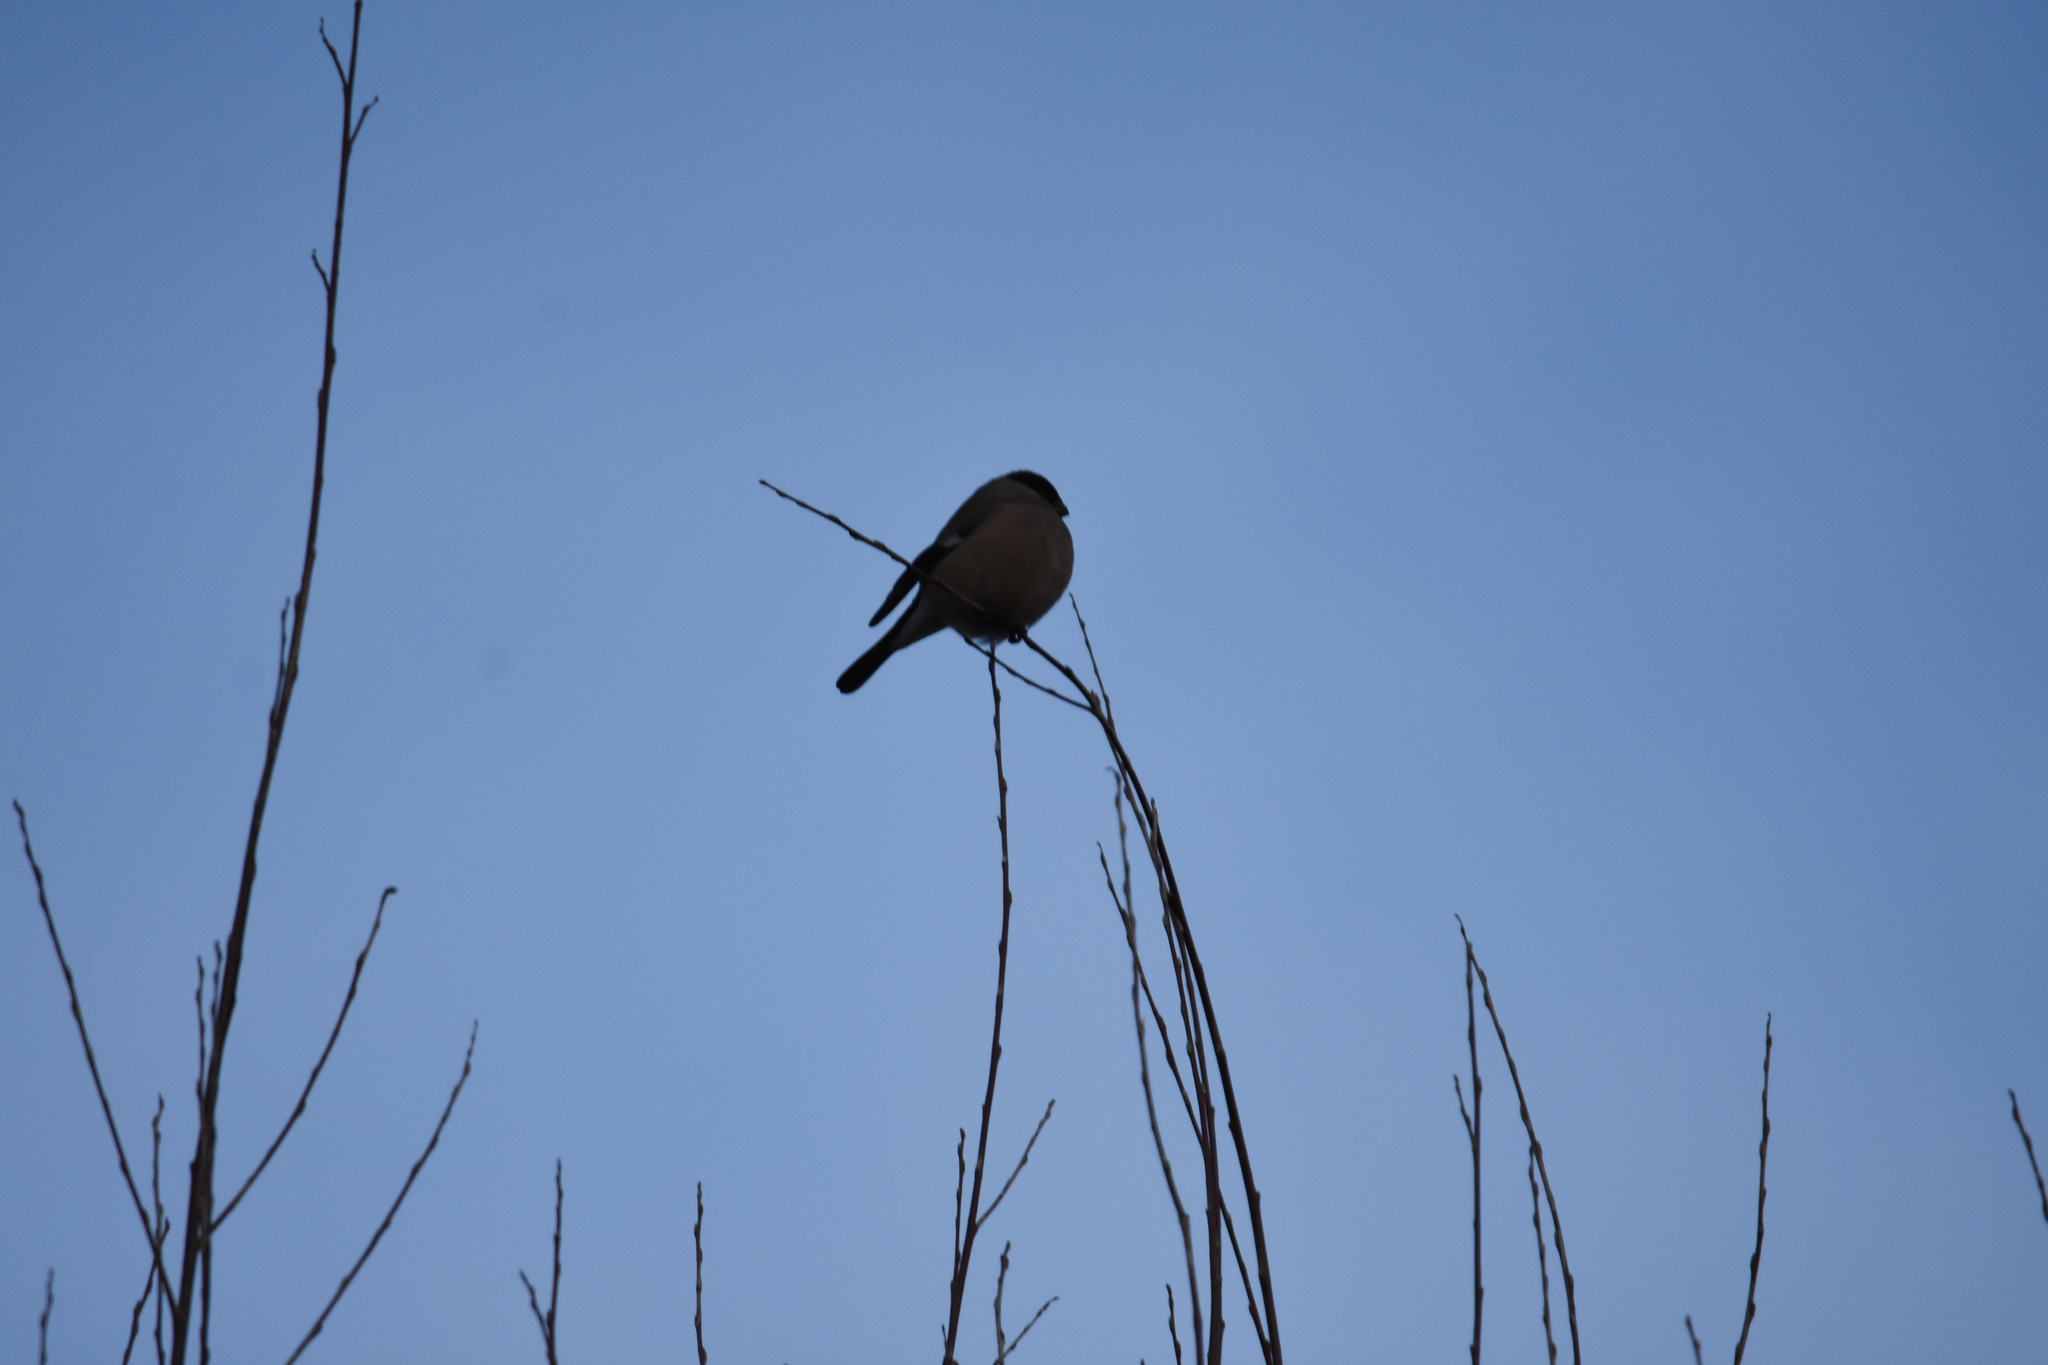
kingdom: Animalia
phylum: Chordata
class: Aves
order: Passeriformes
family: Fringillidae
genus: Pyrrhula
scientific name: Pyrrhula pyrrhula
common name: Eurasian bullfinch
